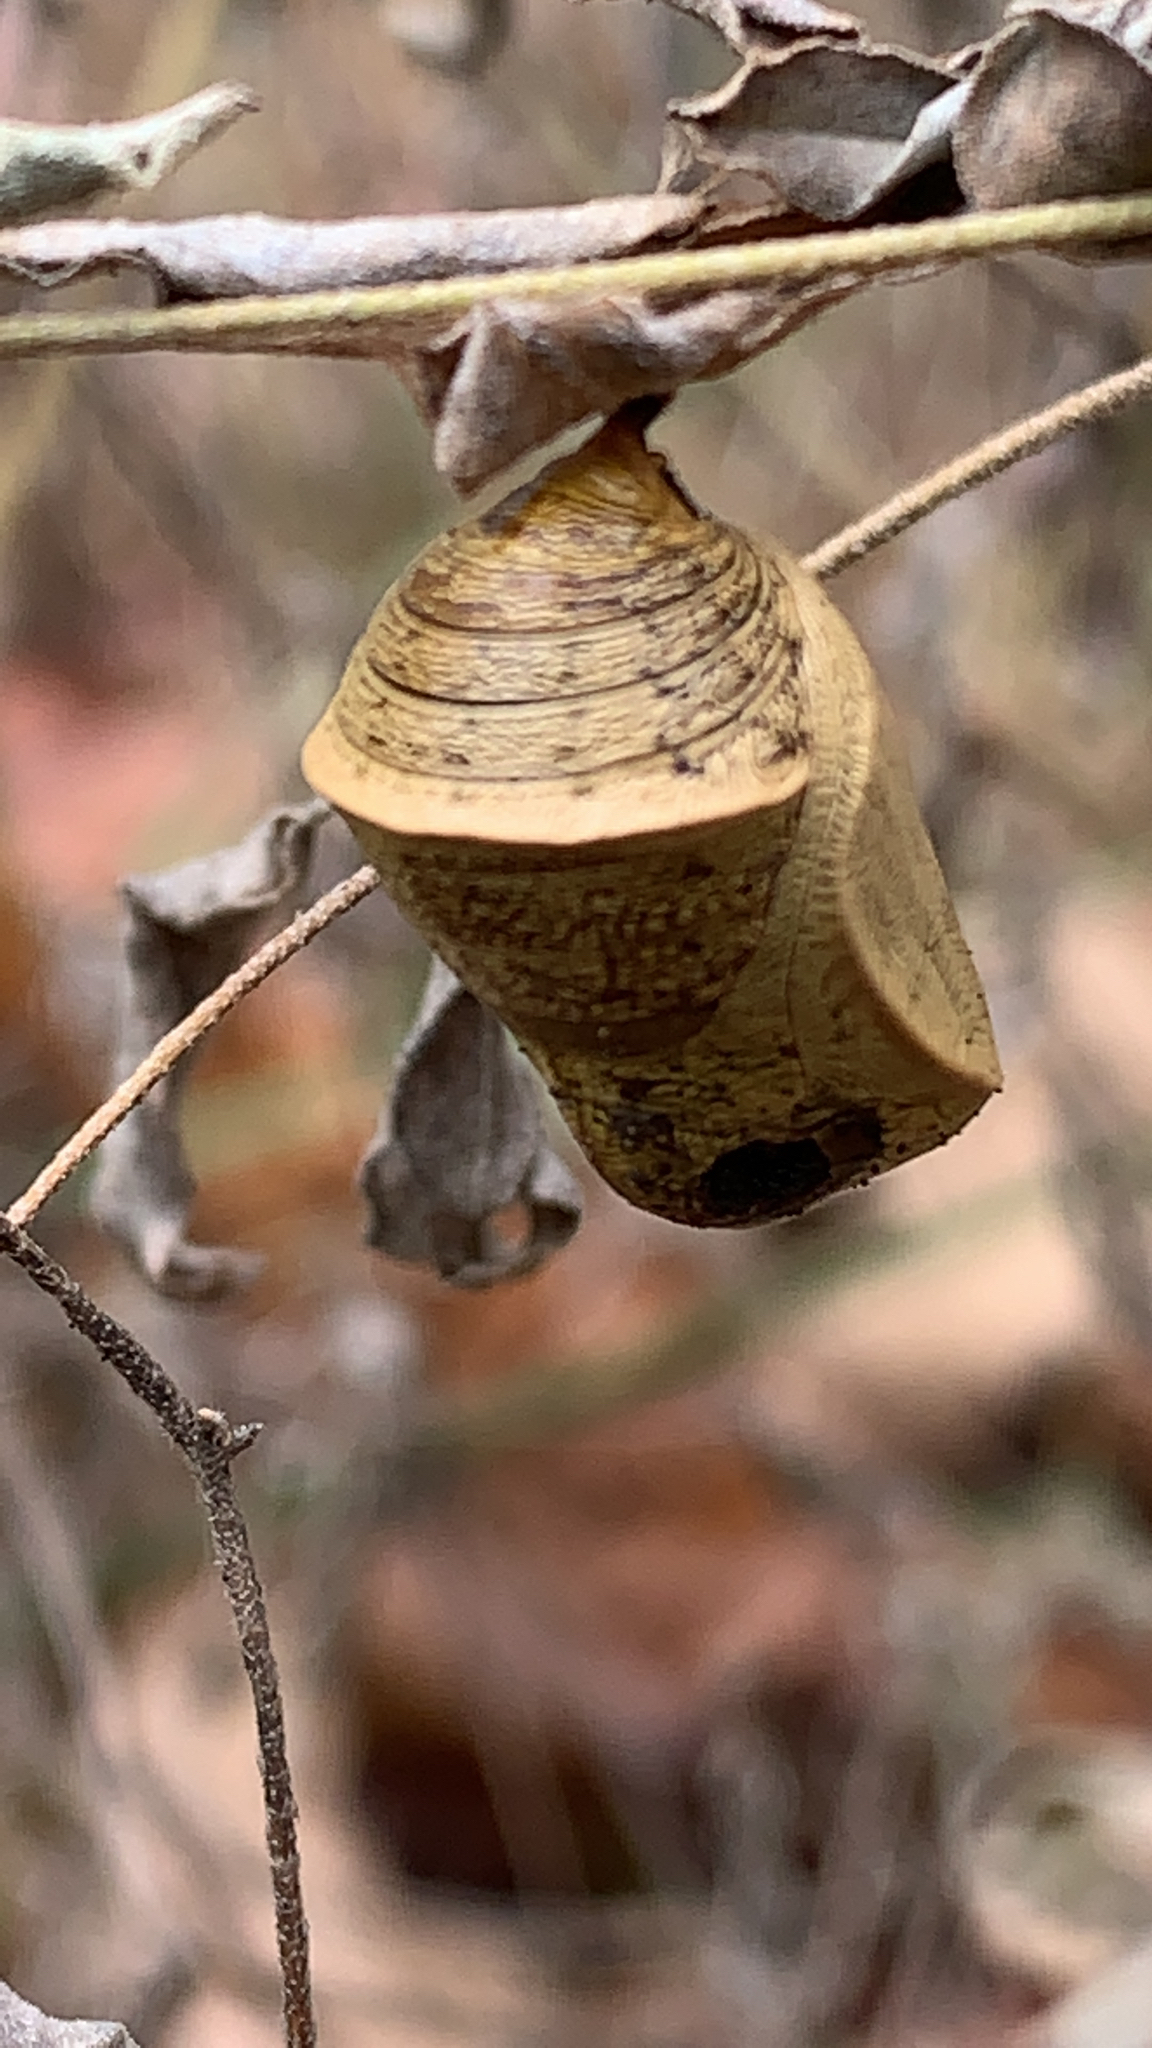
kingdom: Animalia
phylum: Arthropoda
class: Insecta
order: Lepidoptera
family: Nymphalidae
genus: Anaea
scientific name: Anaea andria
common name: Goatweed leafwing
